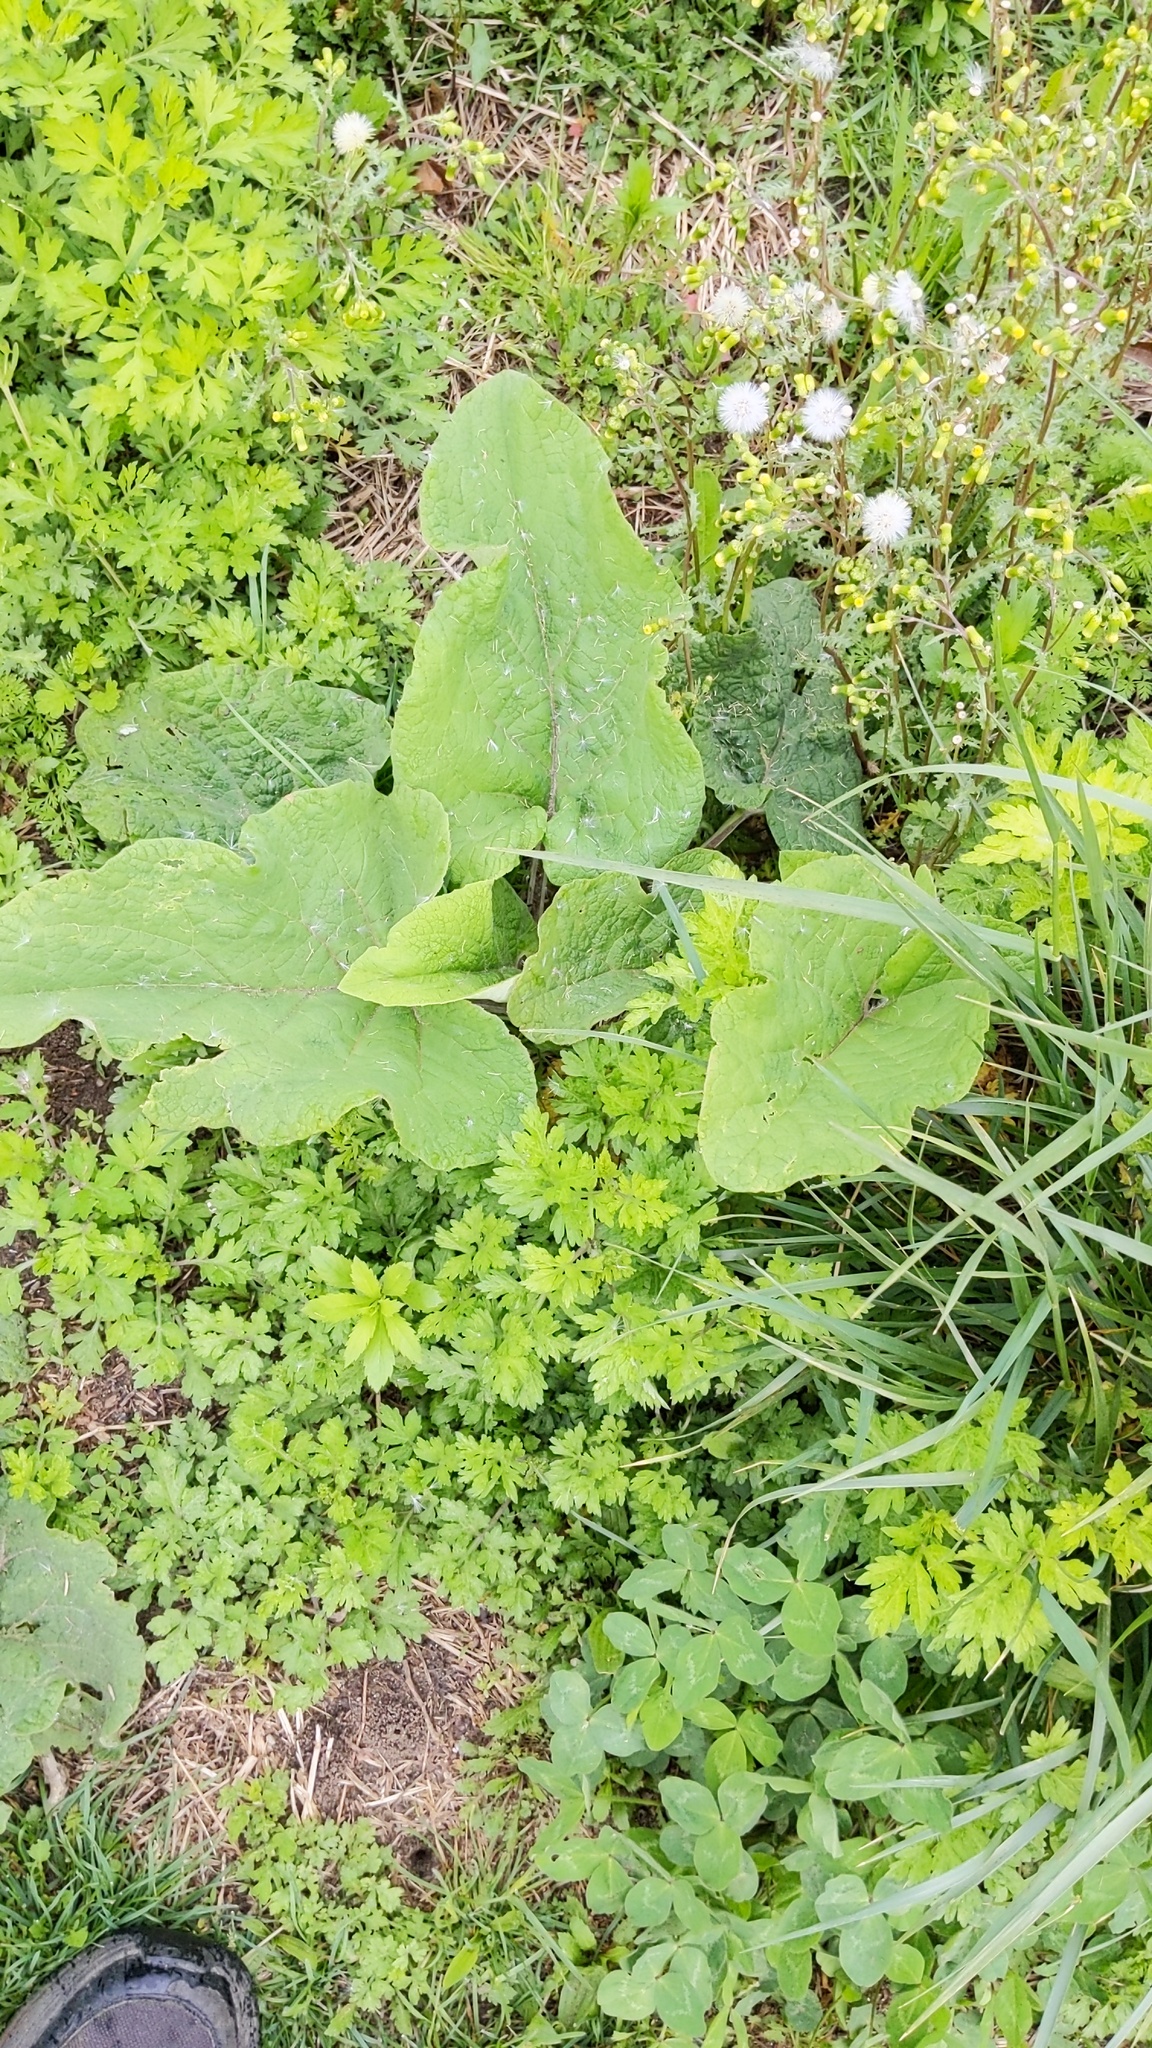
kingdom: Plantae
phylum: Tracheophyta
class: Magnoliopsida
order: Asterales
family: Asteraceae
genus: Arctium
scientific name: Arctium
